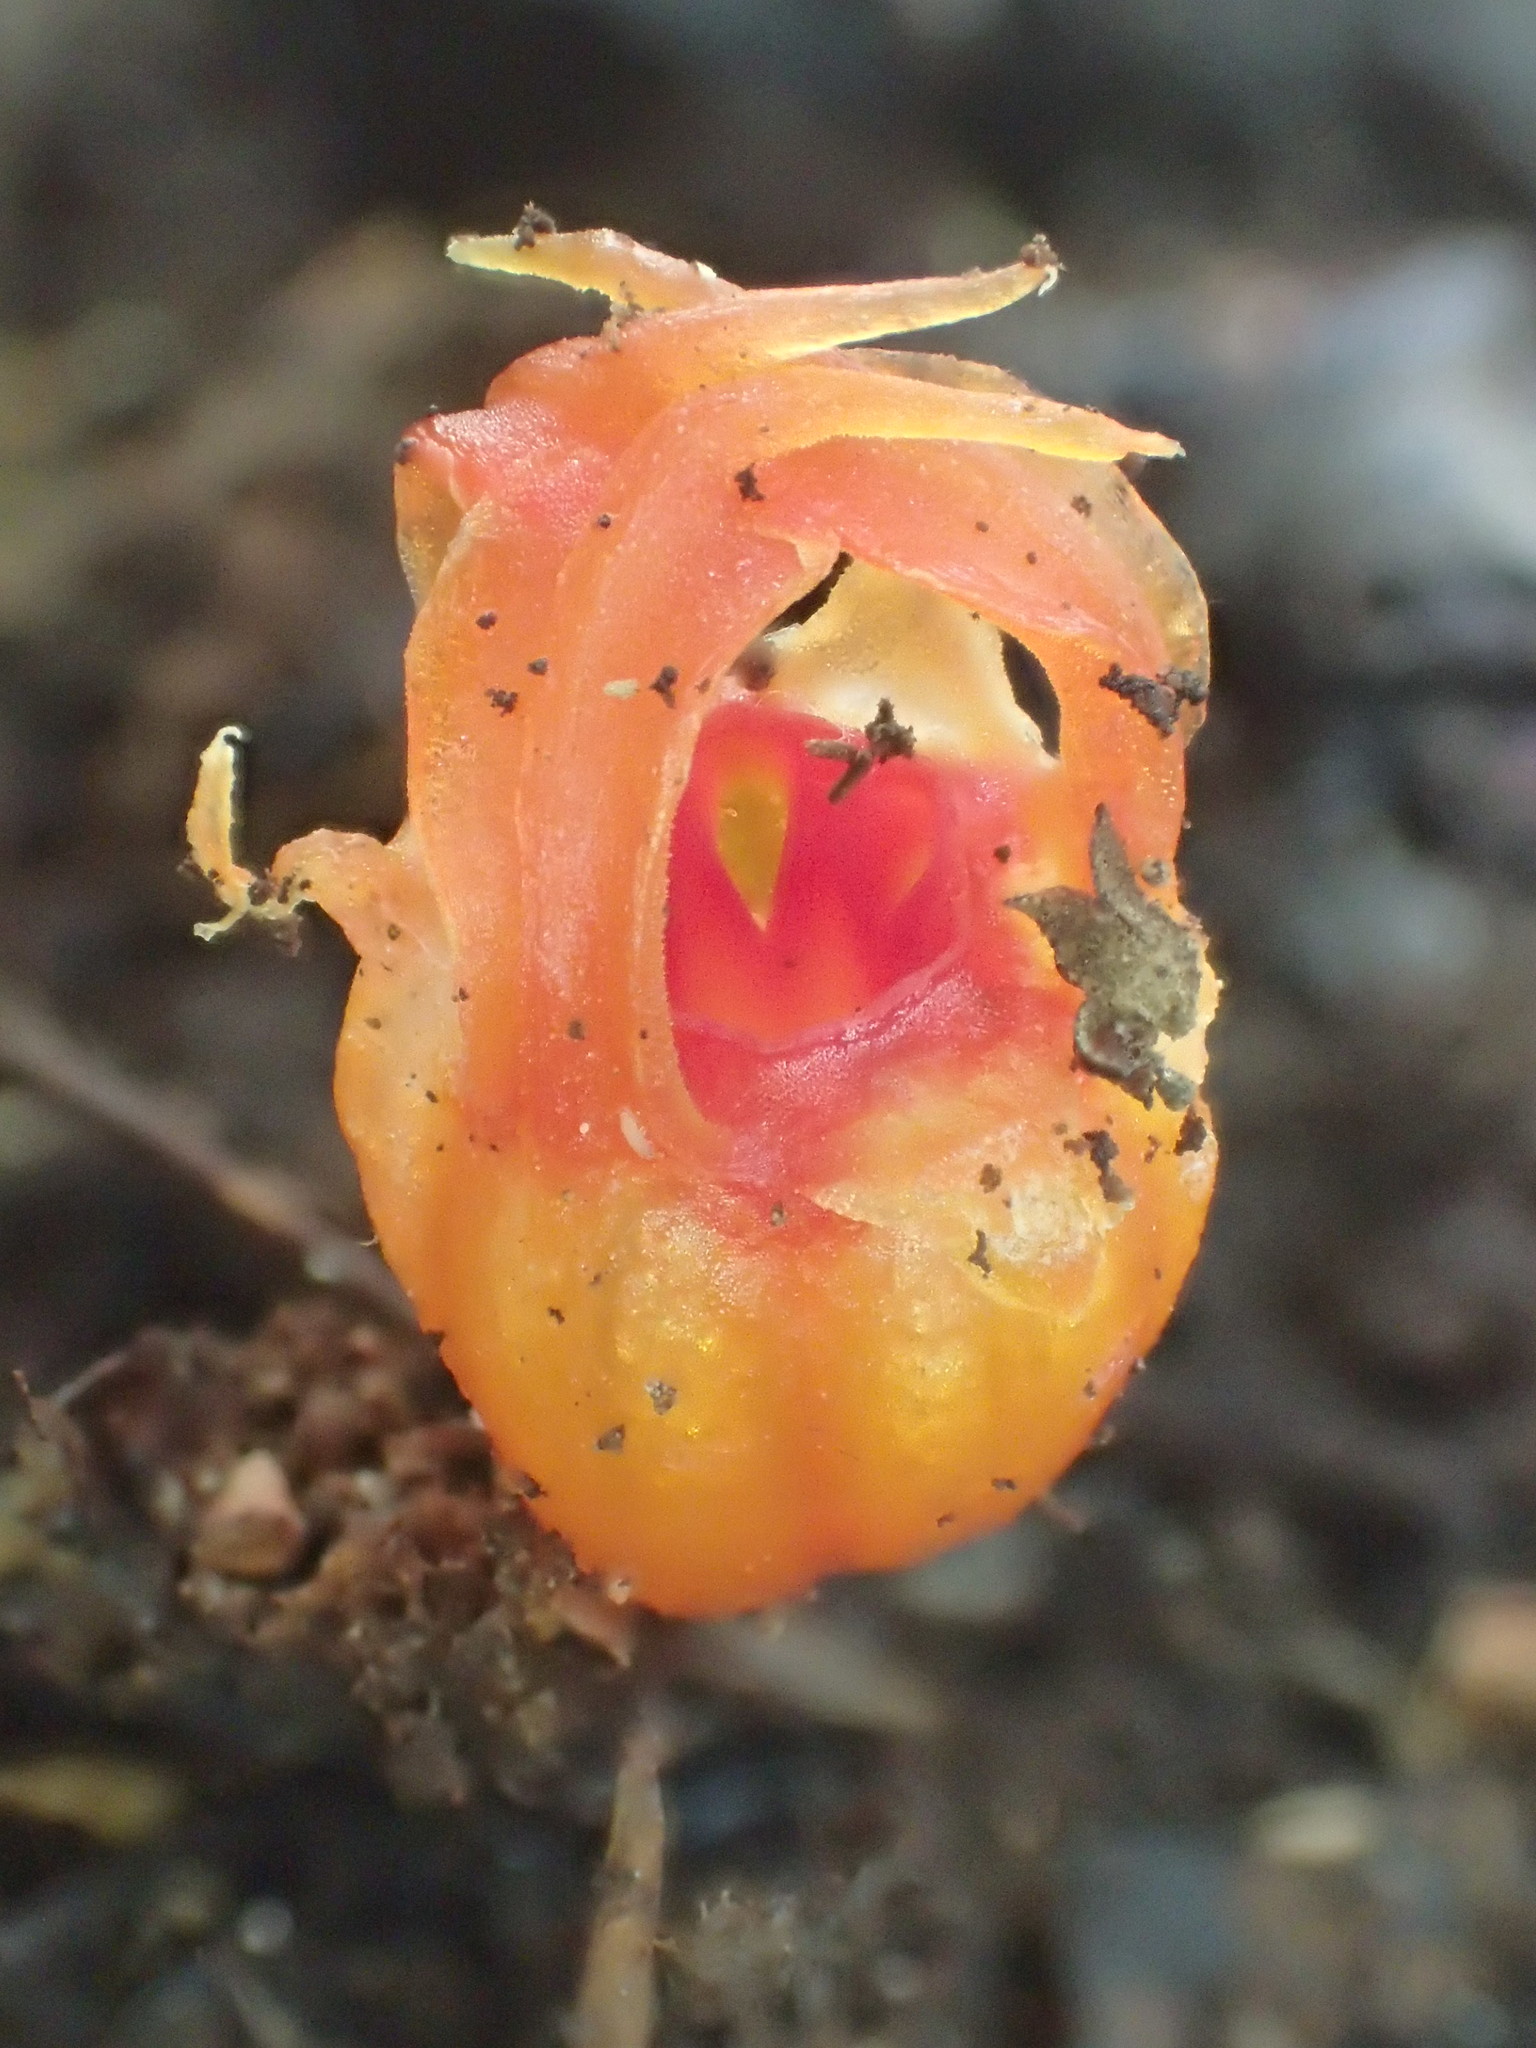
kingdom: Plantae
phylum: Tracheophyta
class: Liliopsida
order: Dioscoreales
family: Burmanniaceae
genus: Thismia
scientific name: Thismia rodwayi
